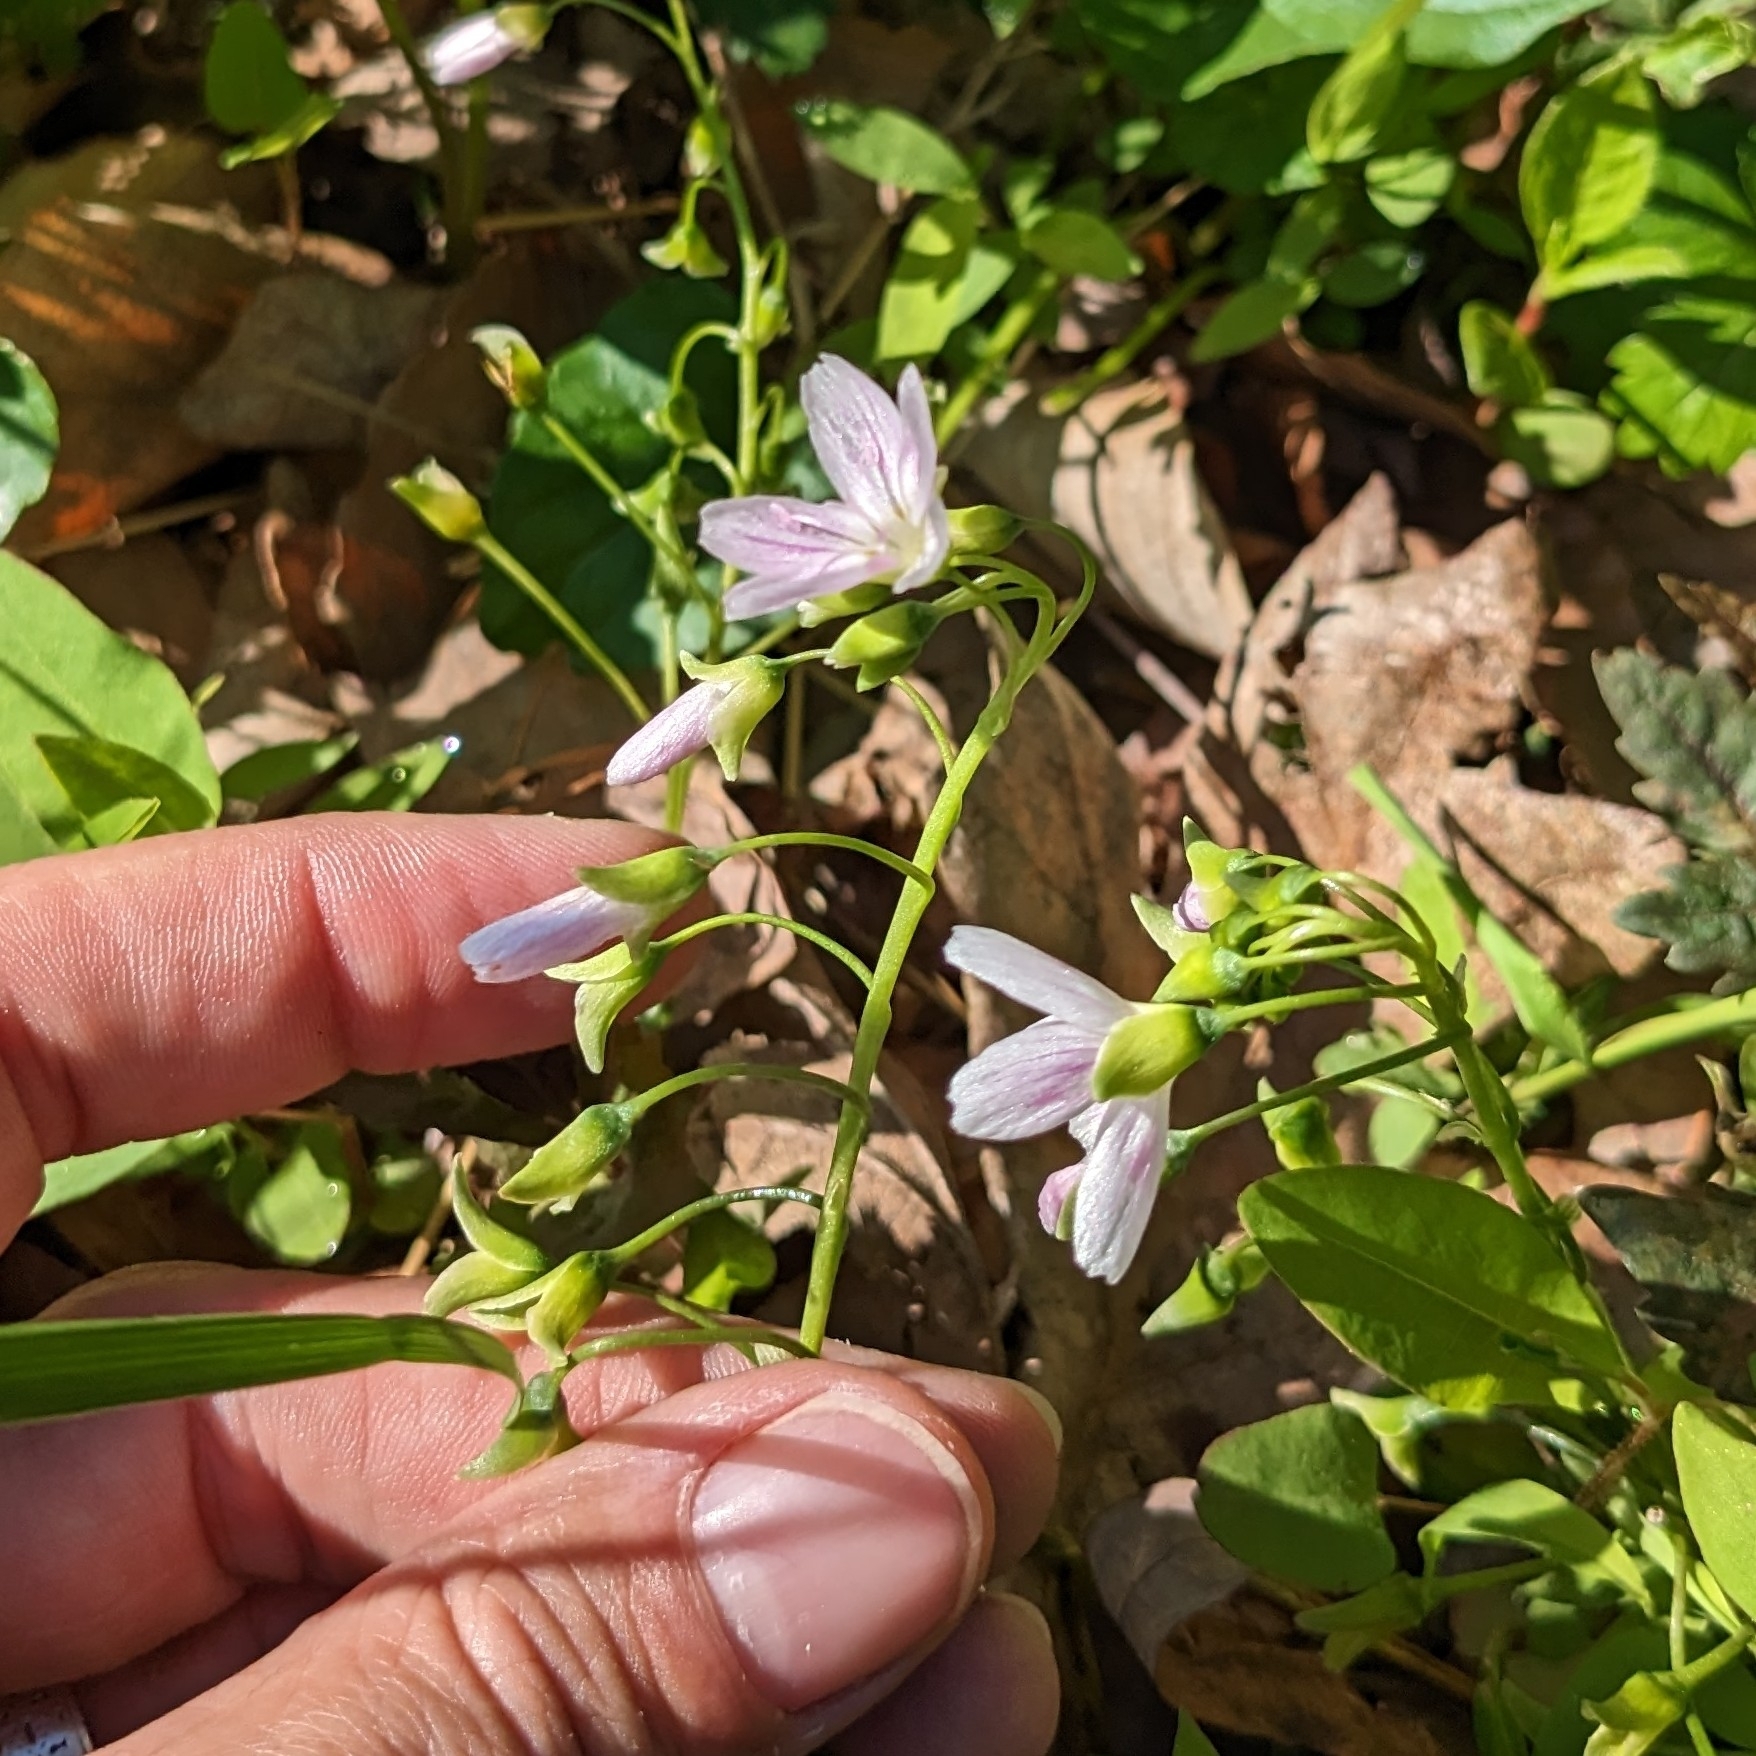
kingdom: Plantae
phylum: Tracheophyta
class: Magnoliopsida
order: Caryophyllales
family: Montiaceae
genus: Claytonia
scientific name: Claytonia virginica
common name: Virginia springbeauty
